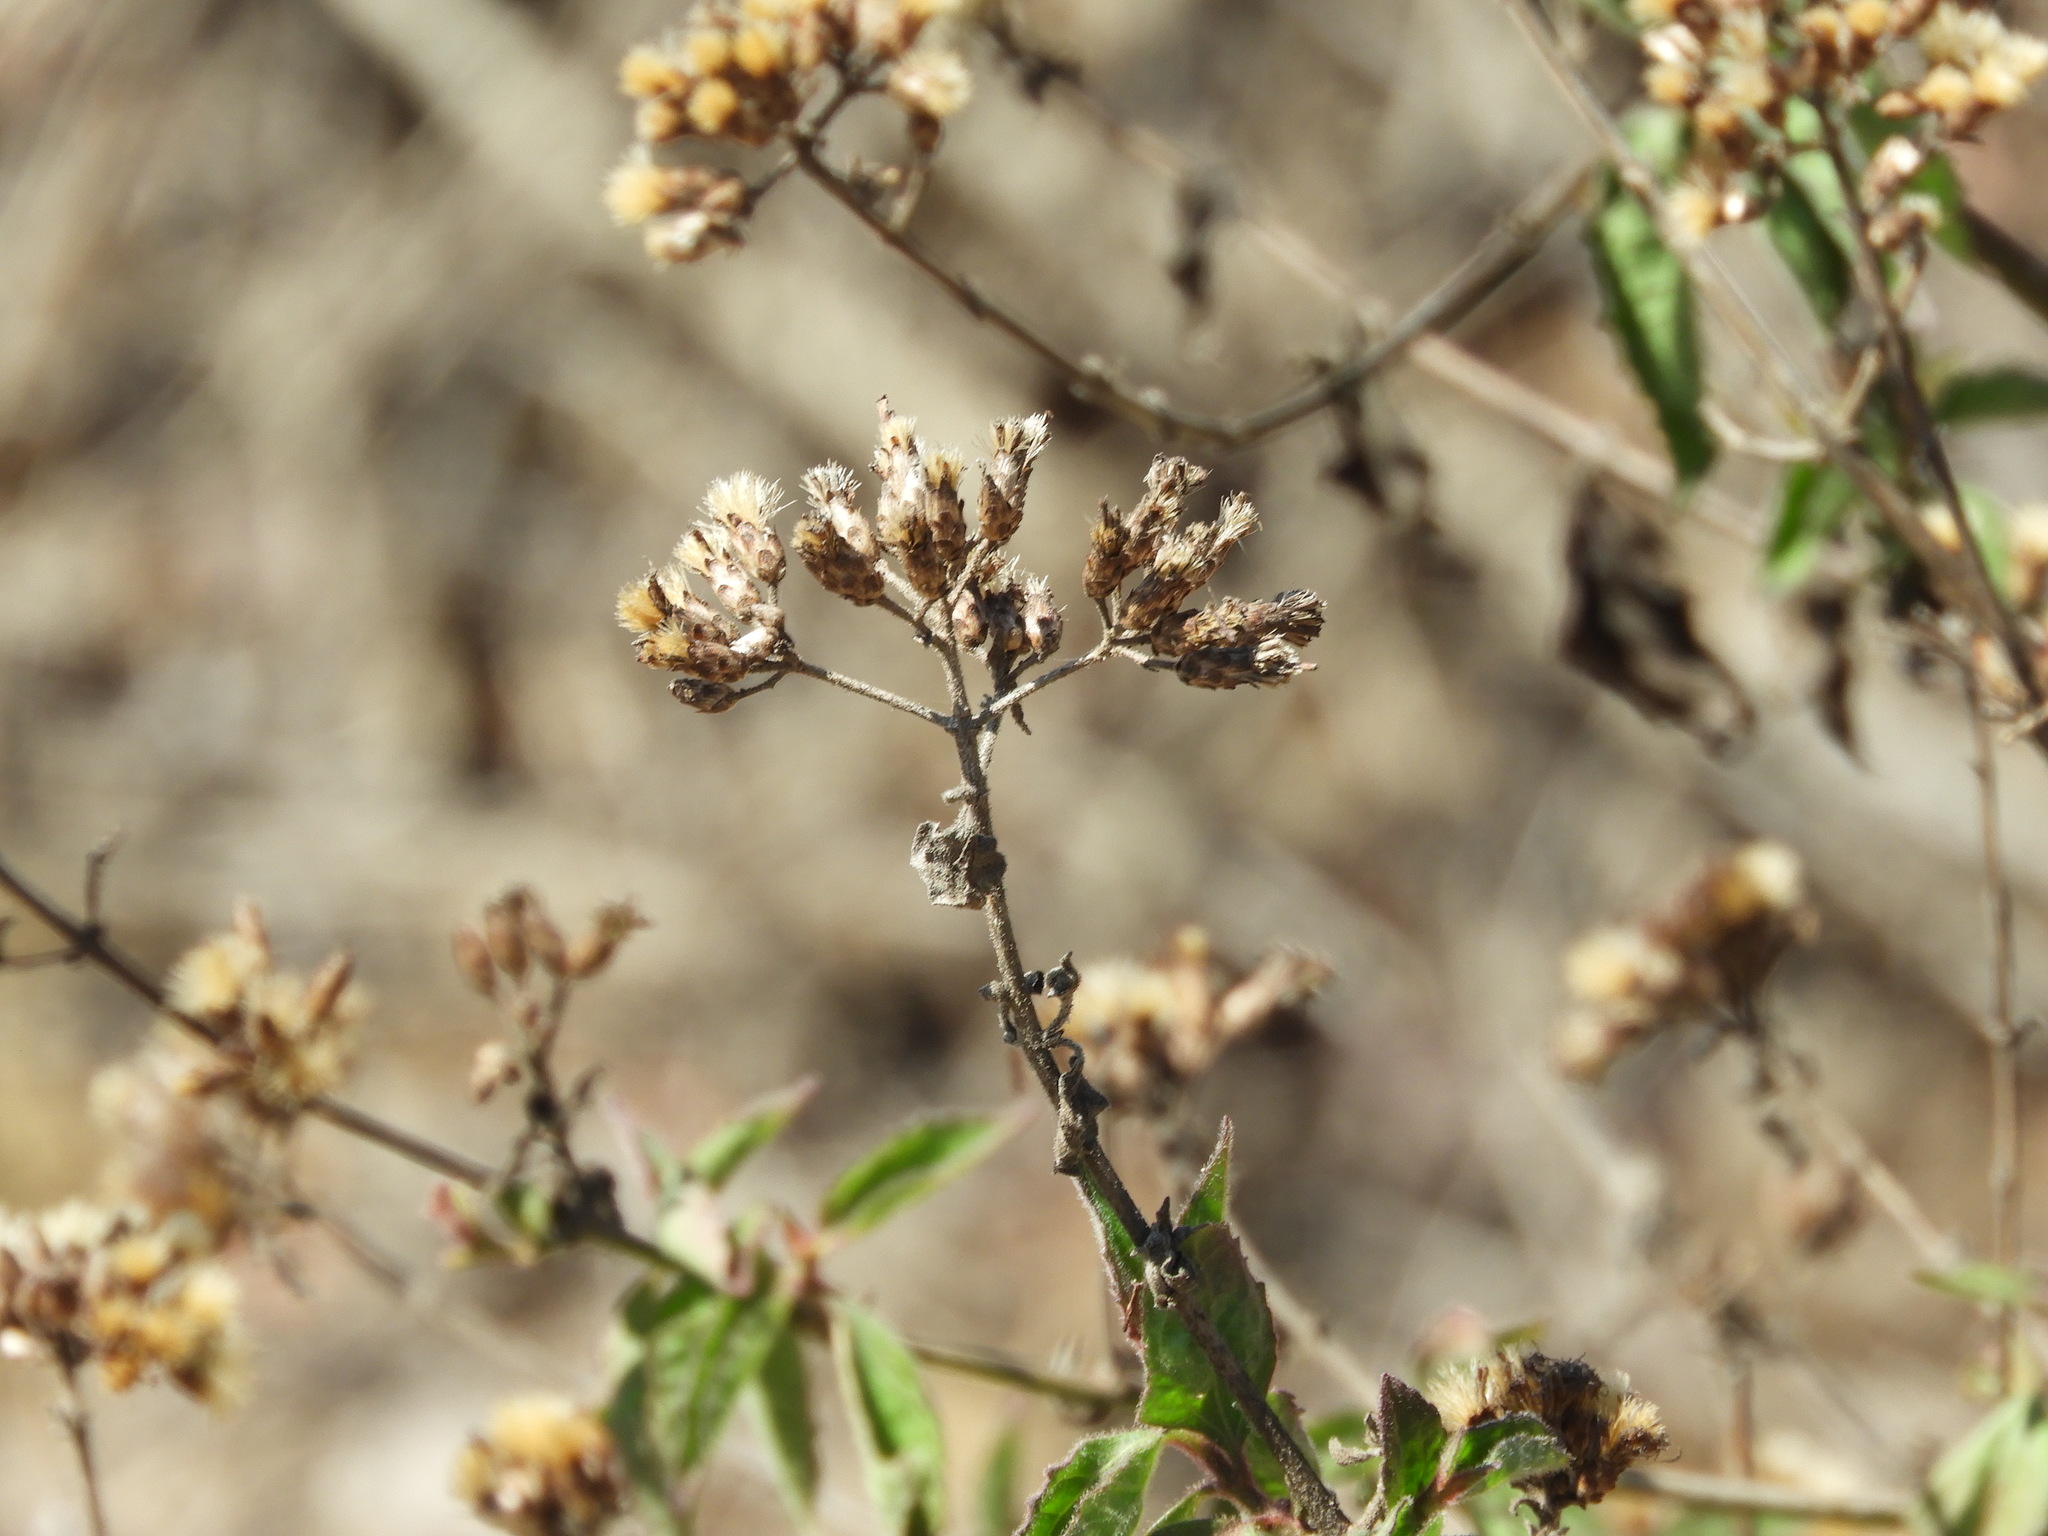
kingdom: Plantae
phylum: Tracheophyta
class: Magnoliopsida
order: Asterales
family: Asteraceae
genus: Chromolaena
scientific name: Chromolaena odorata
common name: Siamweed
